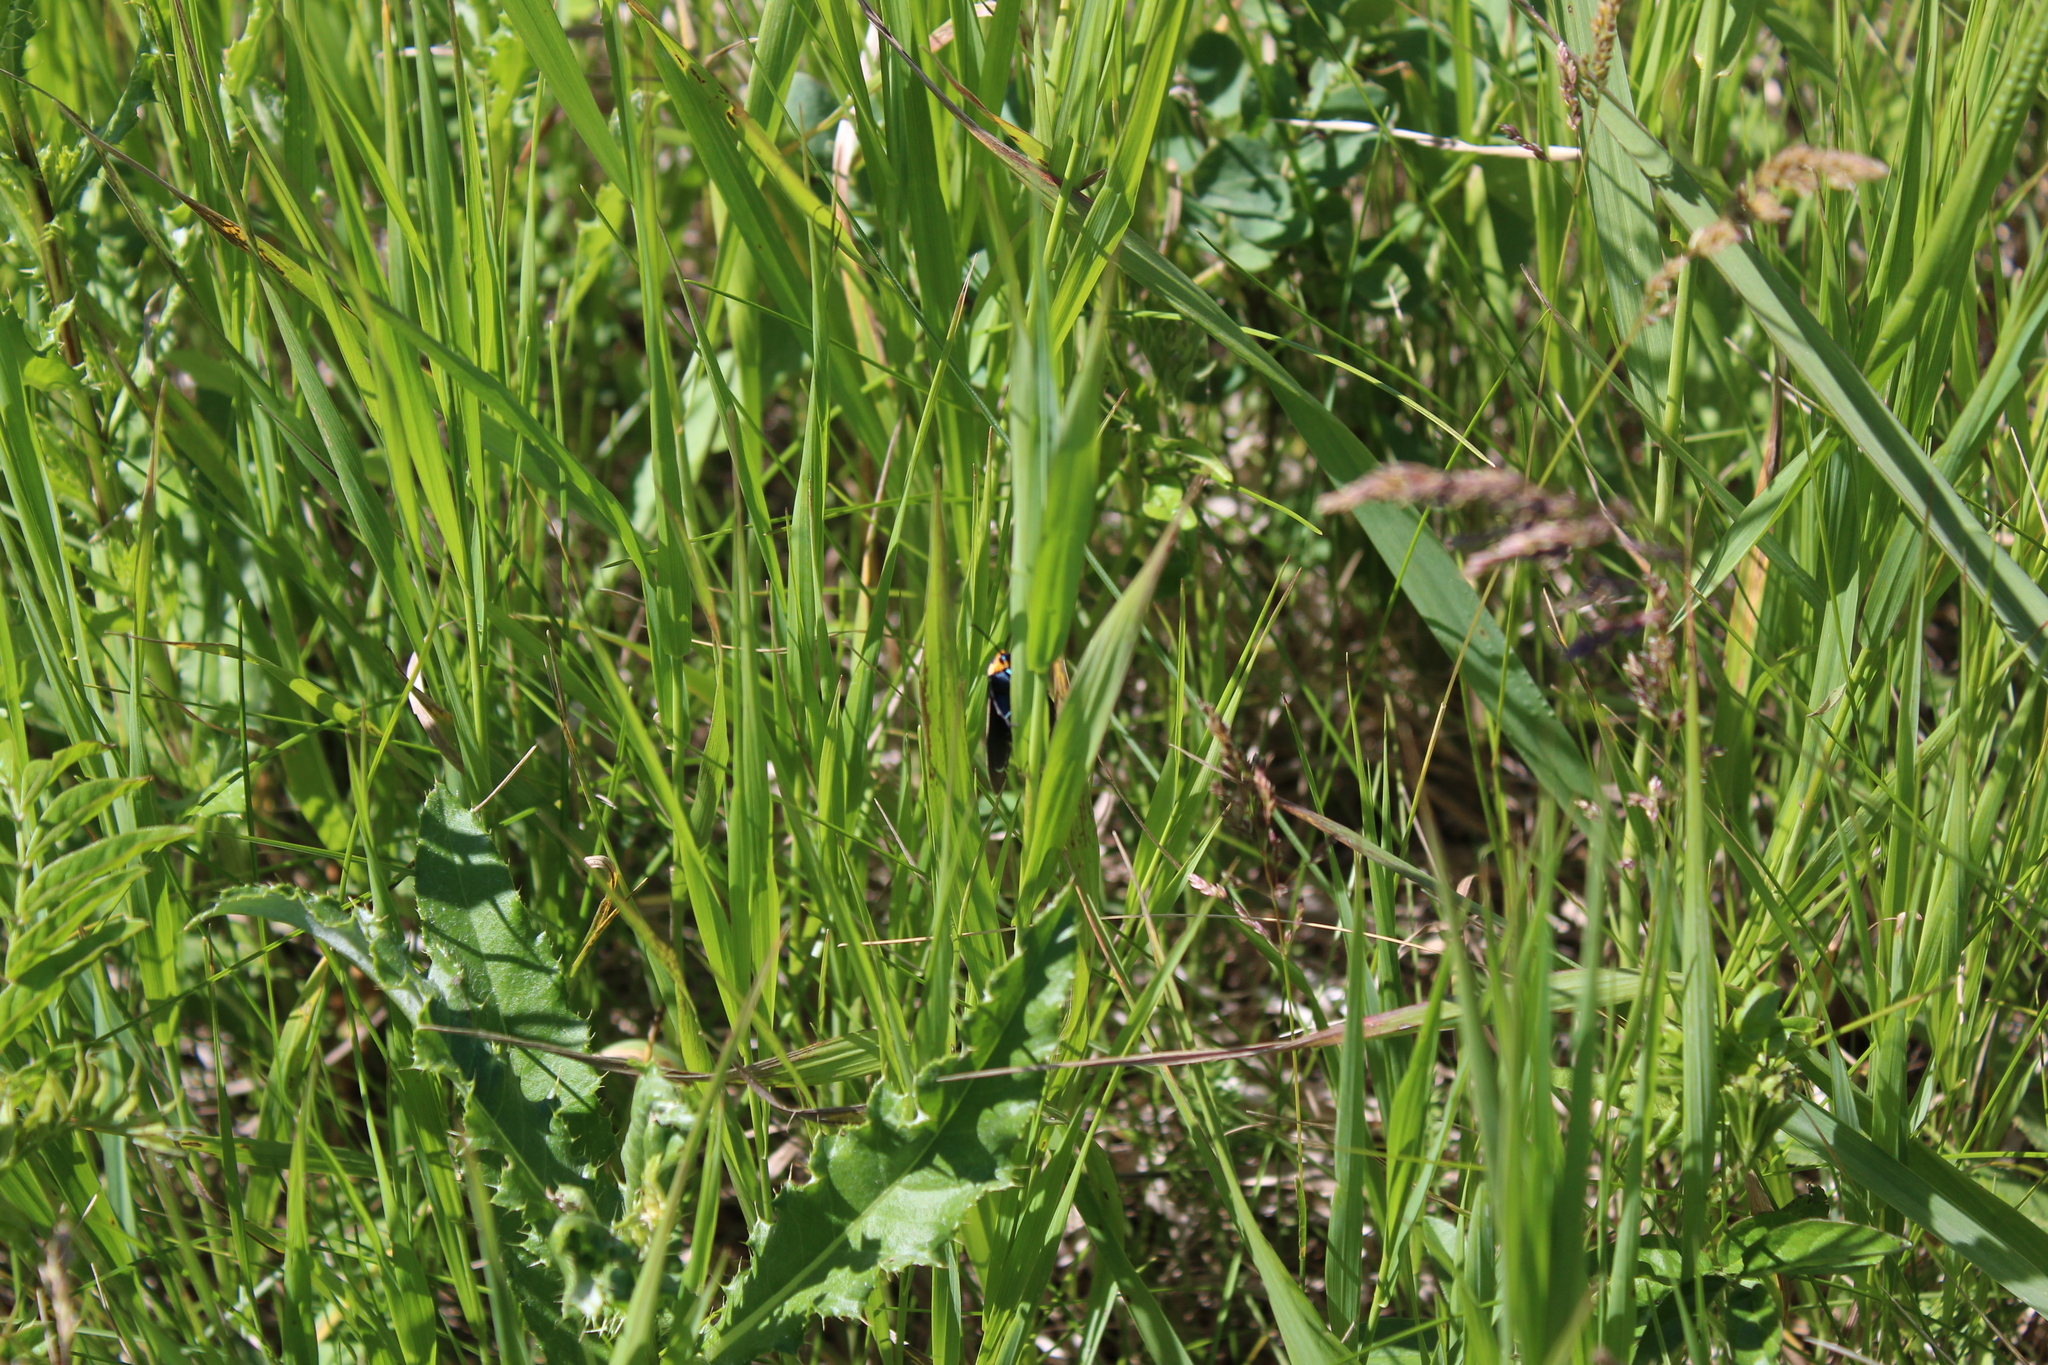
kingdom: Animalia
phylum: Arthropoda
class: Insecta
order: Lepidoptera
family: Erebidae
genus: Ctenucha
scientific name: Ctenucha virginica
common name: Virginia ctenucha moth
